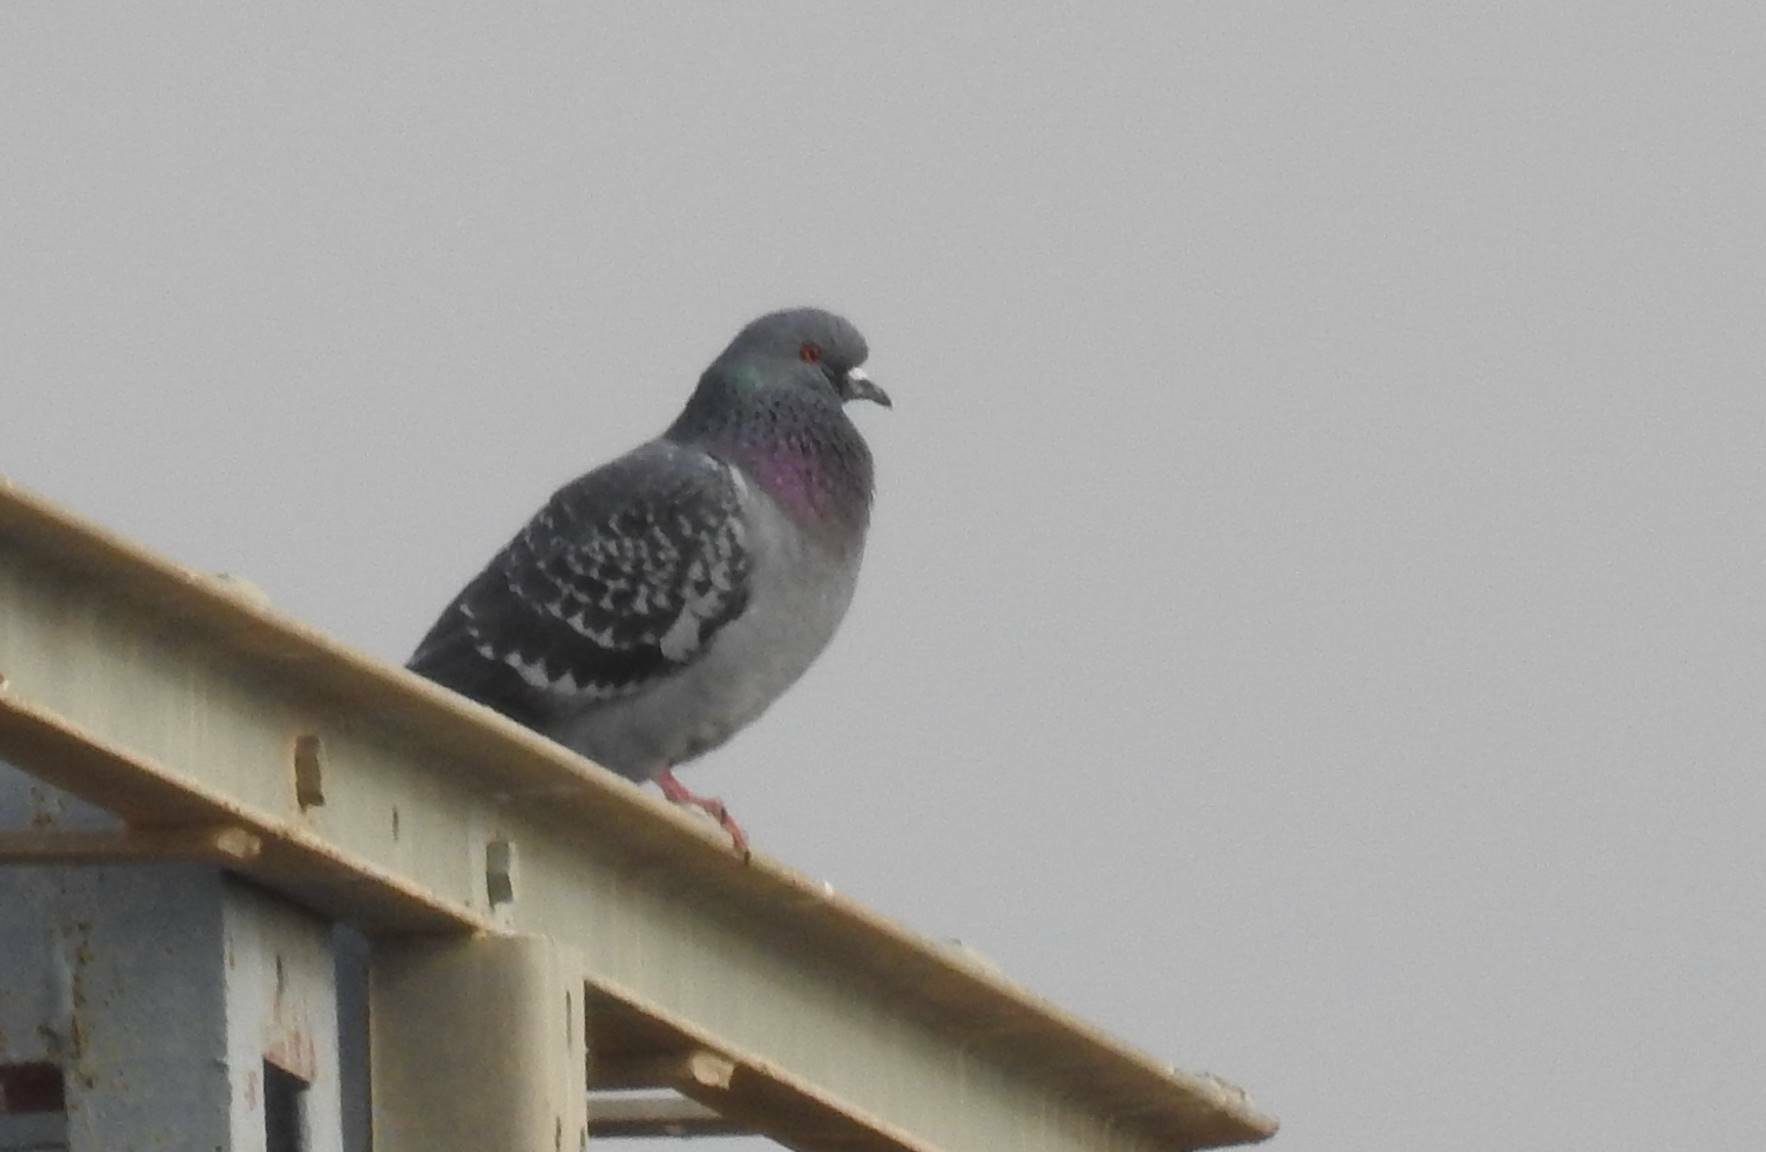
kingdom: Animalia
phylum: Chordata
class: Aves
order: Columbiformes
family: Columbidae
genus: Columba
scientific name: Columba livia
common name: Rock pigeon
